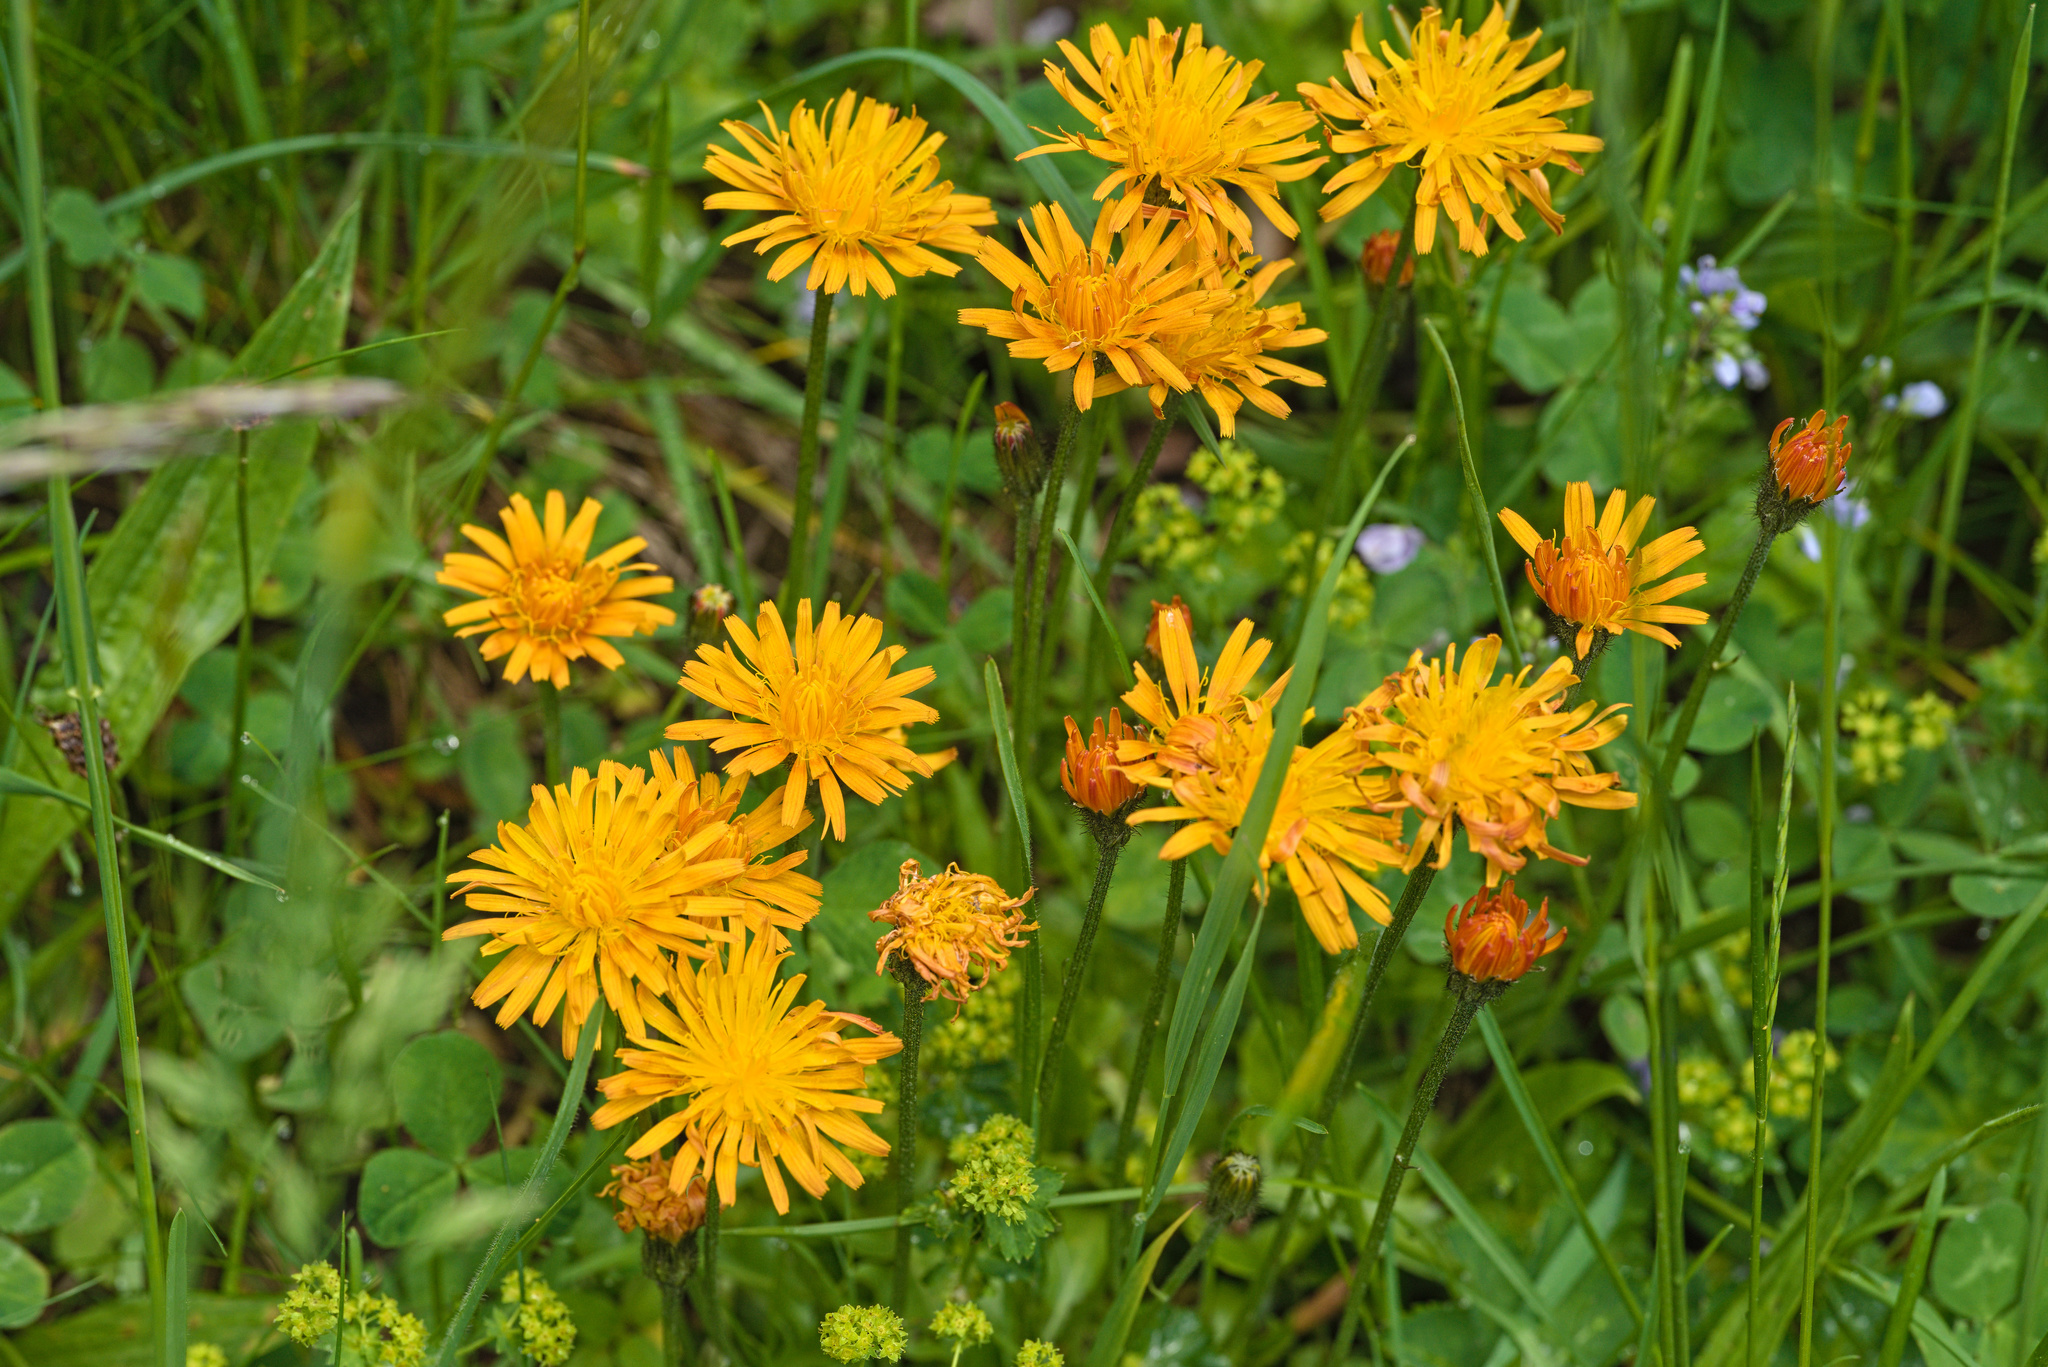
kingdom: Plantae
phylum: Tracheophyta
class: Magnoliopsida
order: Asterales
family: Asteraceae
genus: Crepis
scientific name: Crepis aurea
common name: Golden hawk's-beard
